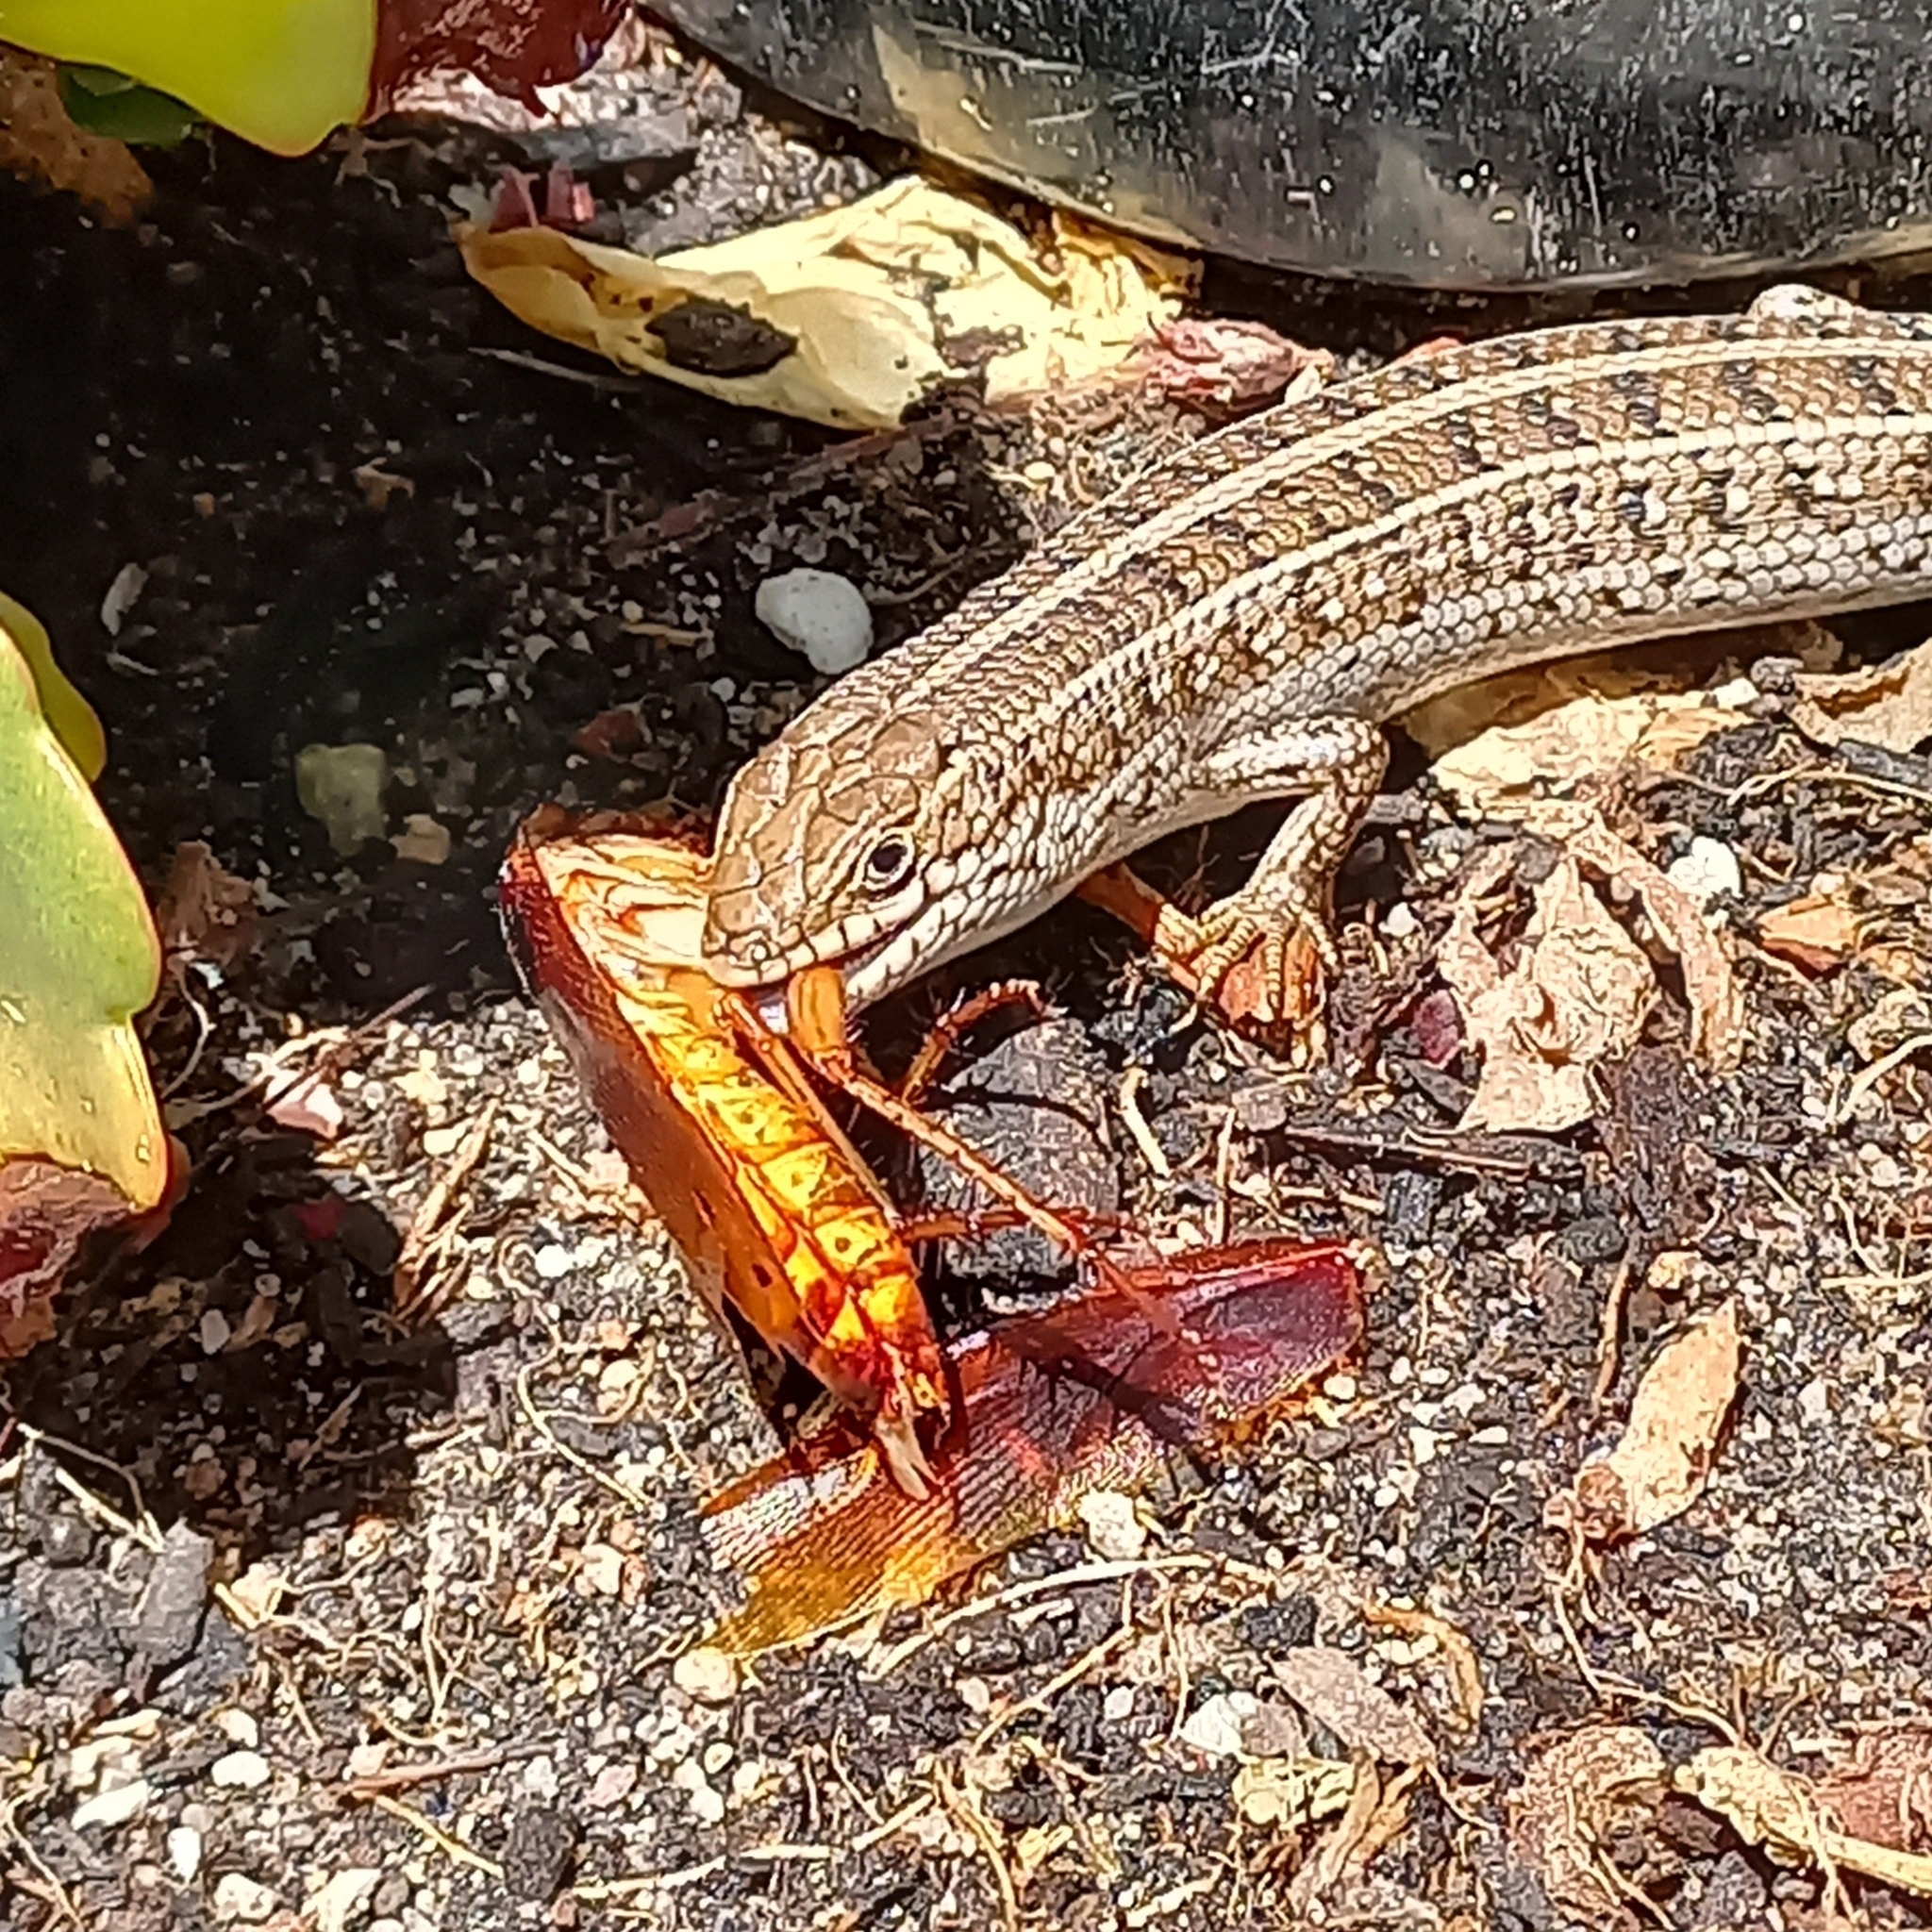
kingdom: Animalia
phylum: Chordata
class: Squamata
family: Scincidae
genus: Trachylepis
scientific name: Trachylepis capensis
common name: Cape skink
